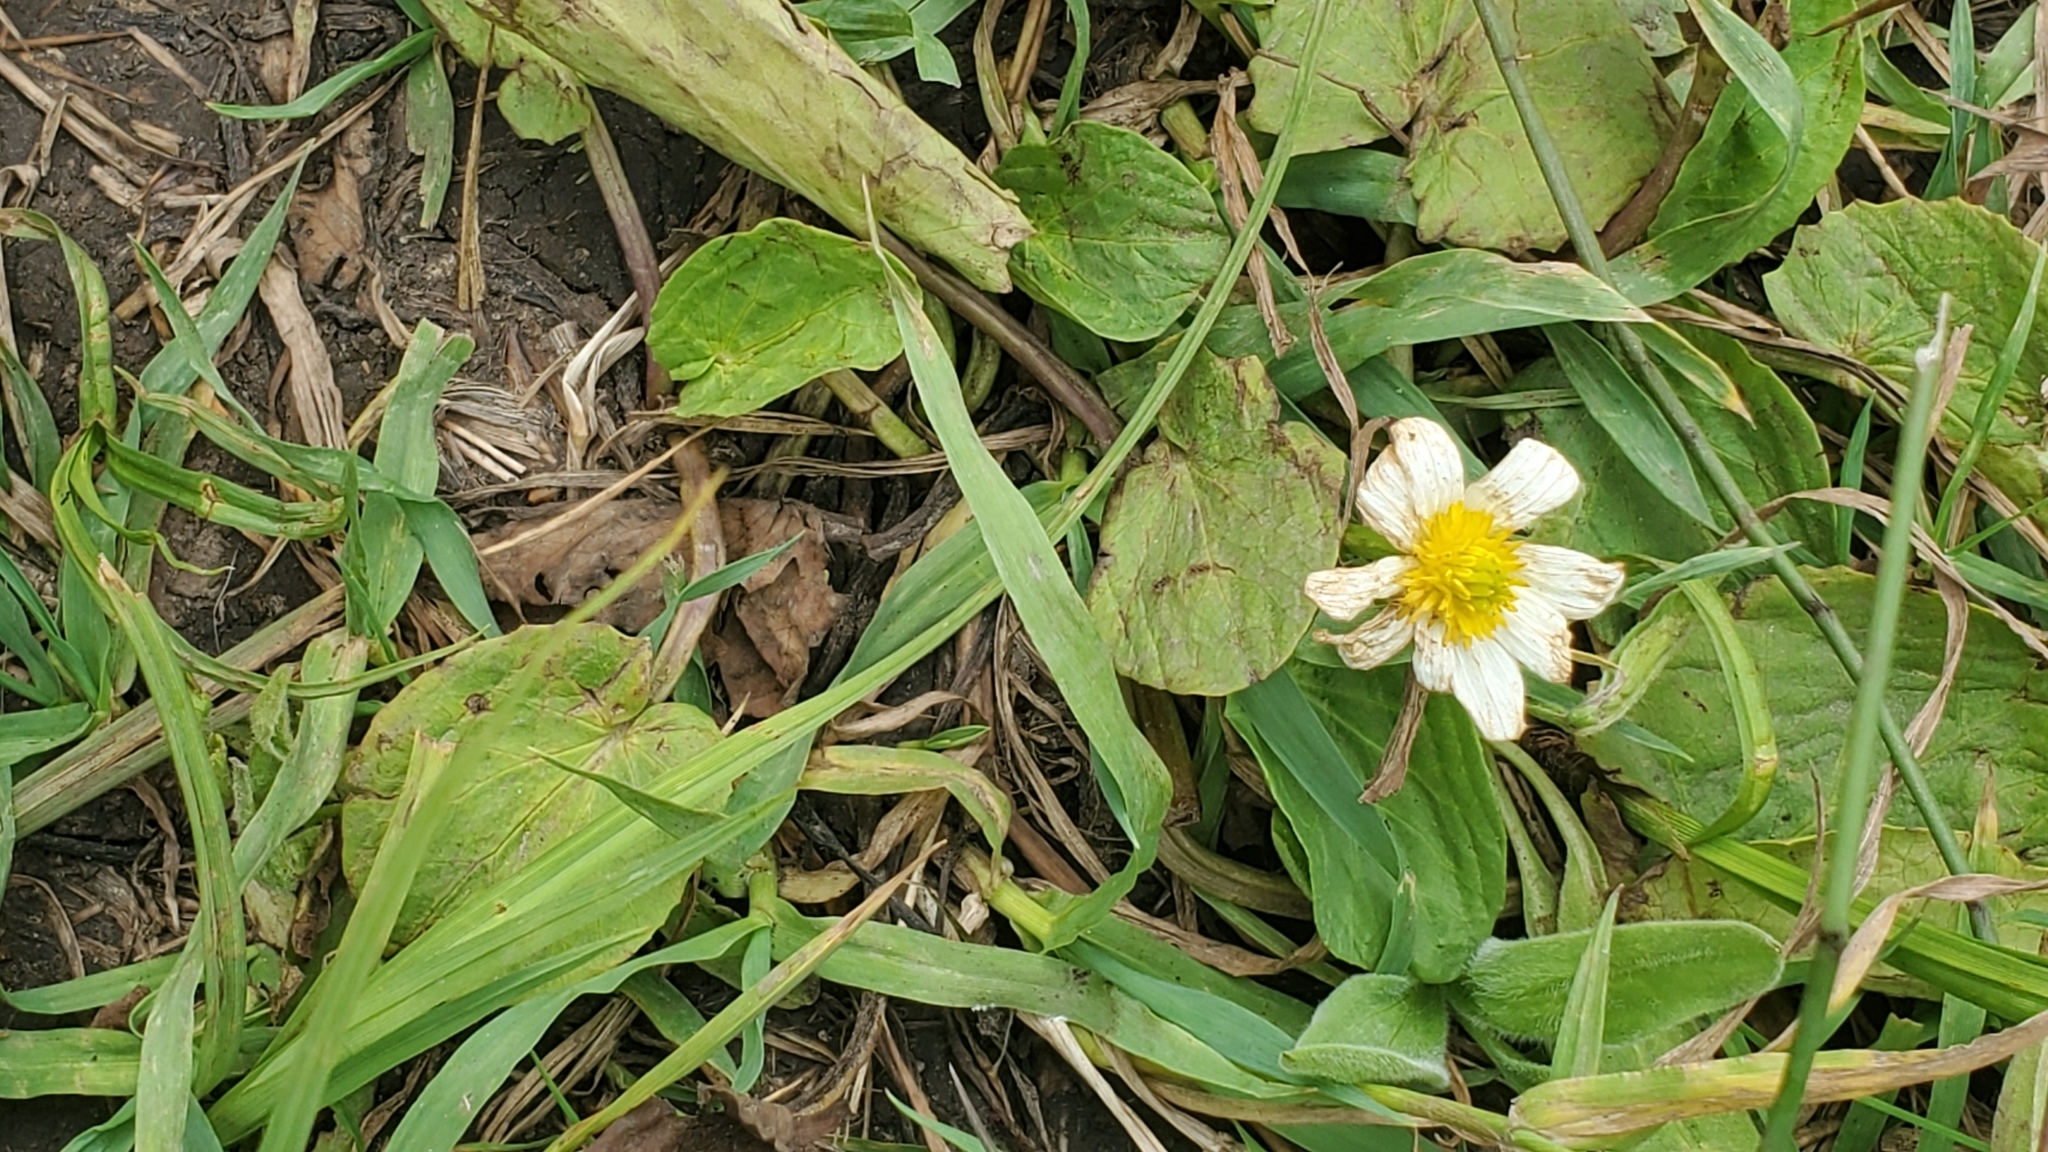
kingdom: Plantae
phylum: Tracheophyta
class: Magnoliopsida
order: Ranunculales
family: Ranunculaceae
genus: Caltha
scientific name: Caltha leptosepala
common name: Elkslip
